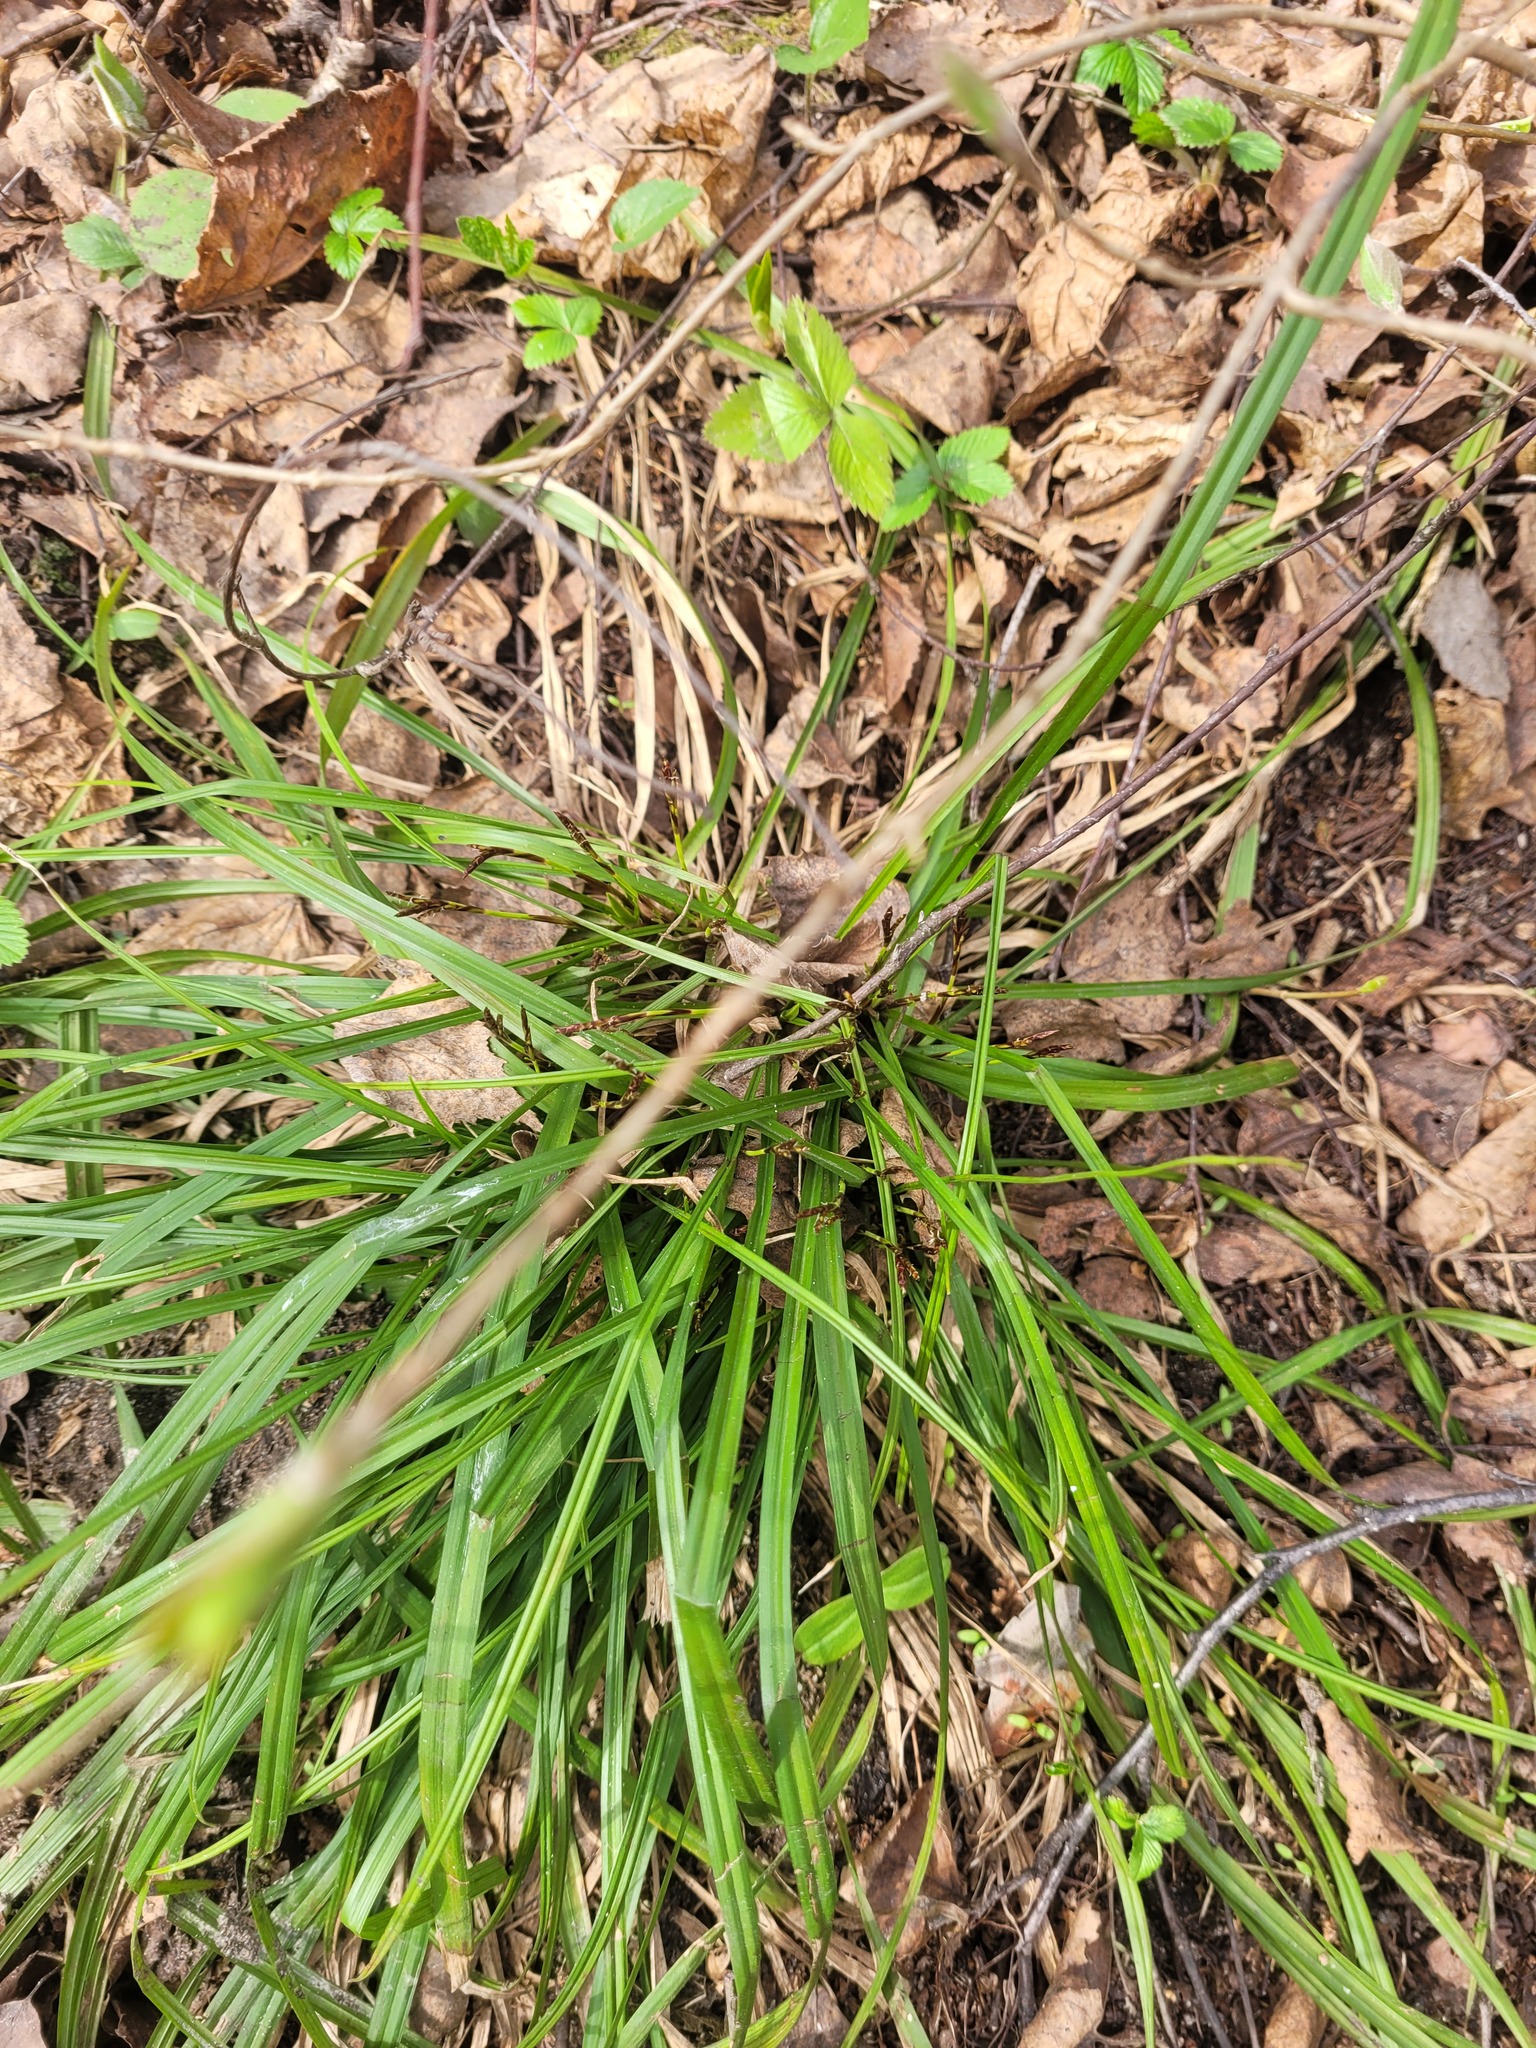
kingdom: Plantae
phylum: Tracheophyta
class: Liliopsida
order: Poales
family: Cyperaceae
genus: Carex
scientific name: Carex digitata
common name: Fingered sedge
